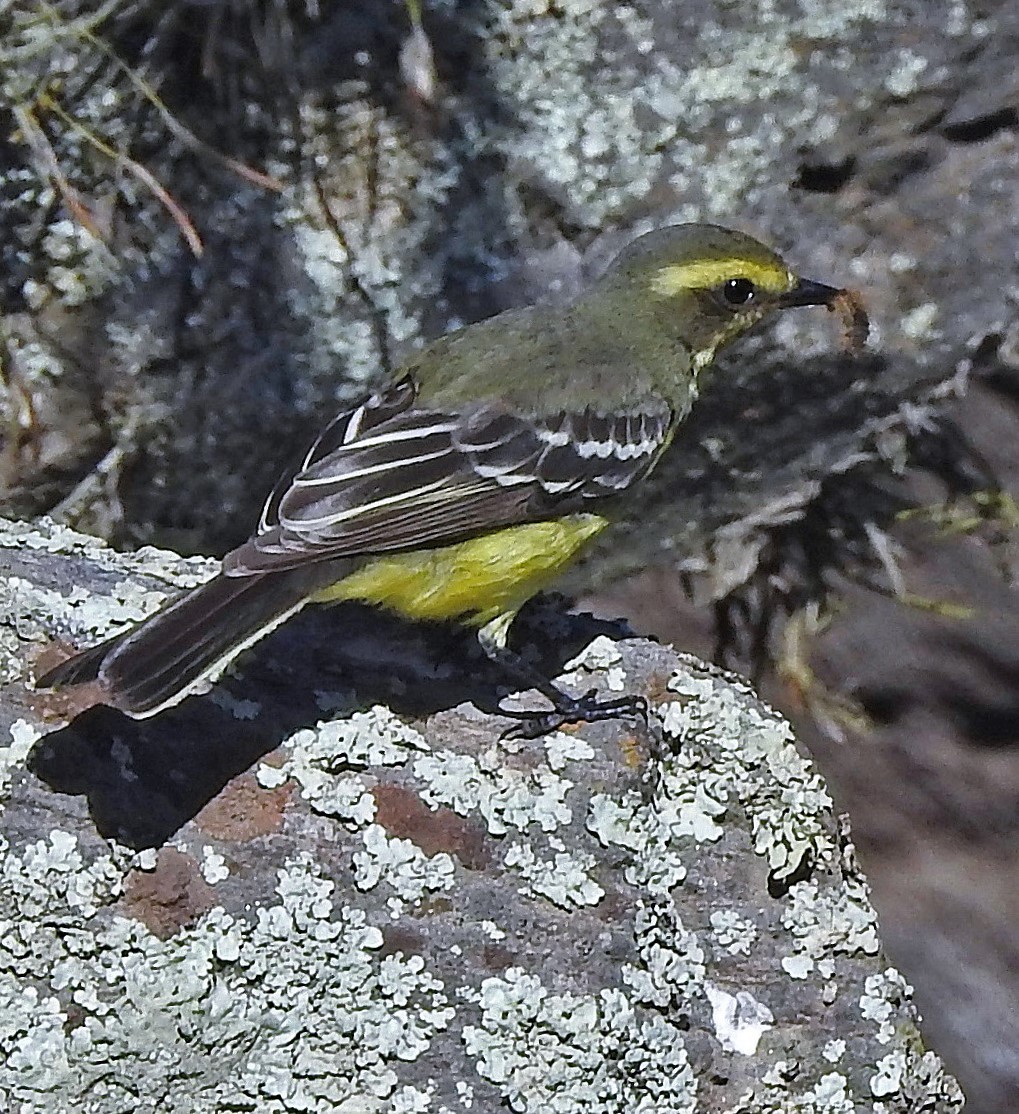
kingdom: Animalia
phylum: Chordata
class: Aves
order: Passeriformes
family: Tyrannidae
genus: Satrapa
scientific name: Satrapa icterophrys
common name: Yellow-browed tyrant
